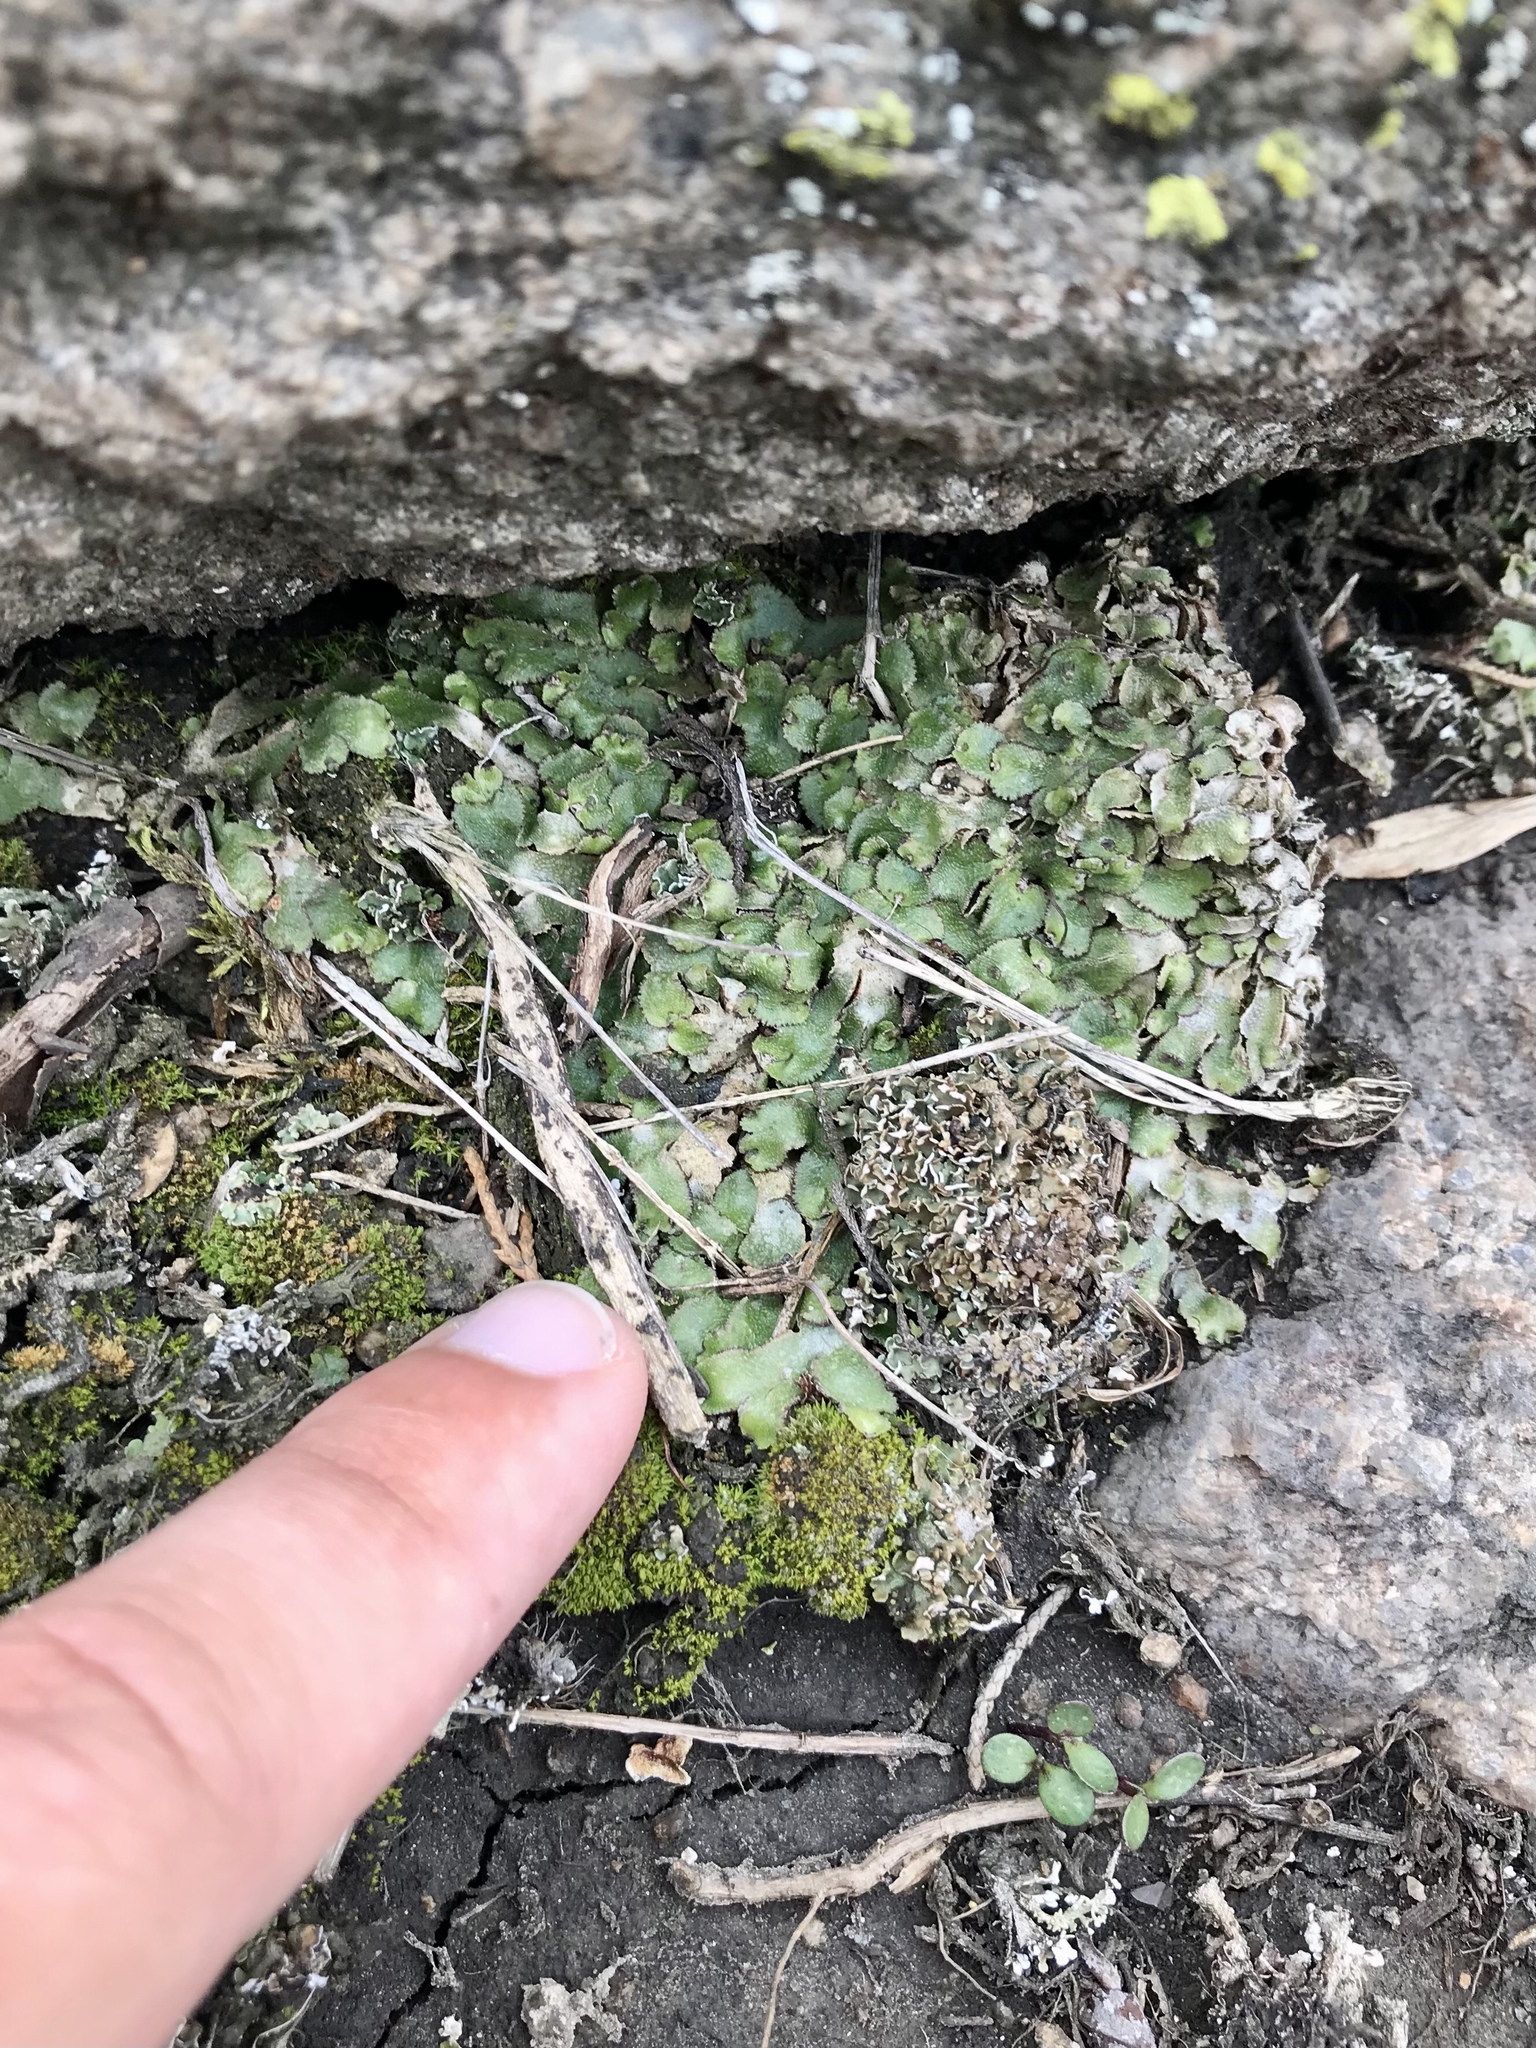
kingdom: Plantae
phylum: Marchantiophyta
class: Marchantiopsida
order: Marchantiales
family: Aytoniaceae
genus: Reboulia
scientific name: Reboulia hemisphaerica
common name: Purple-margined liverwort
